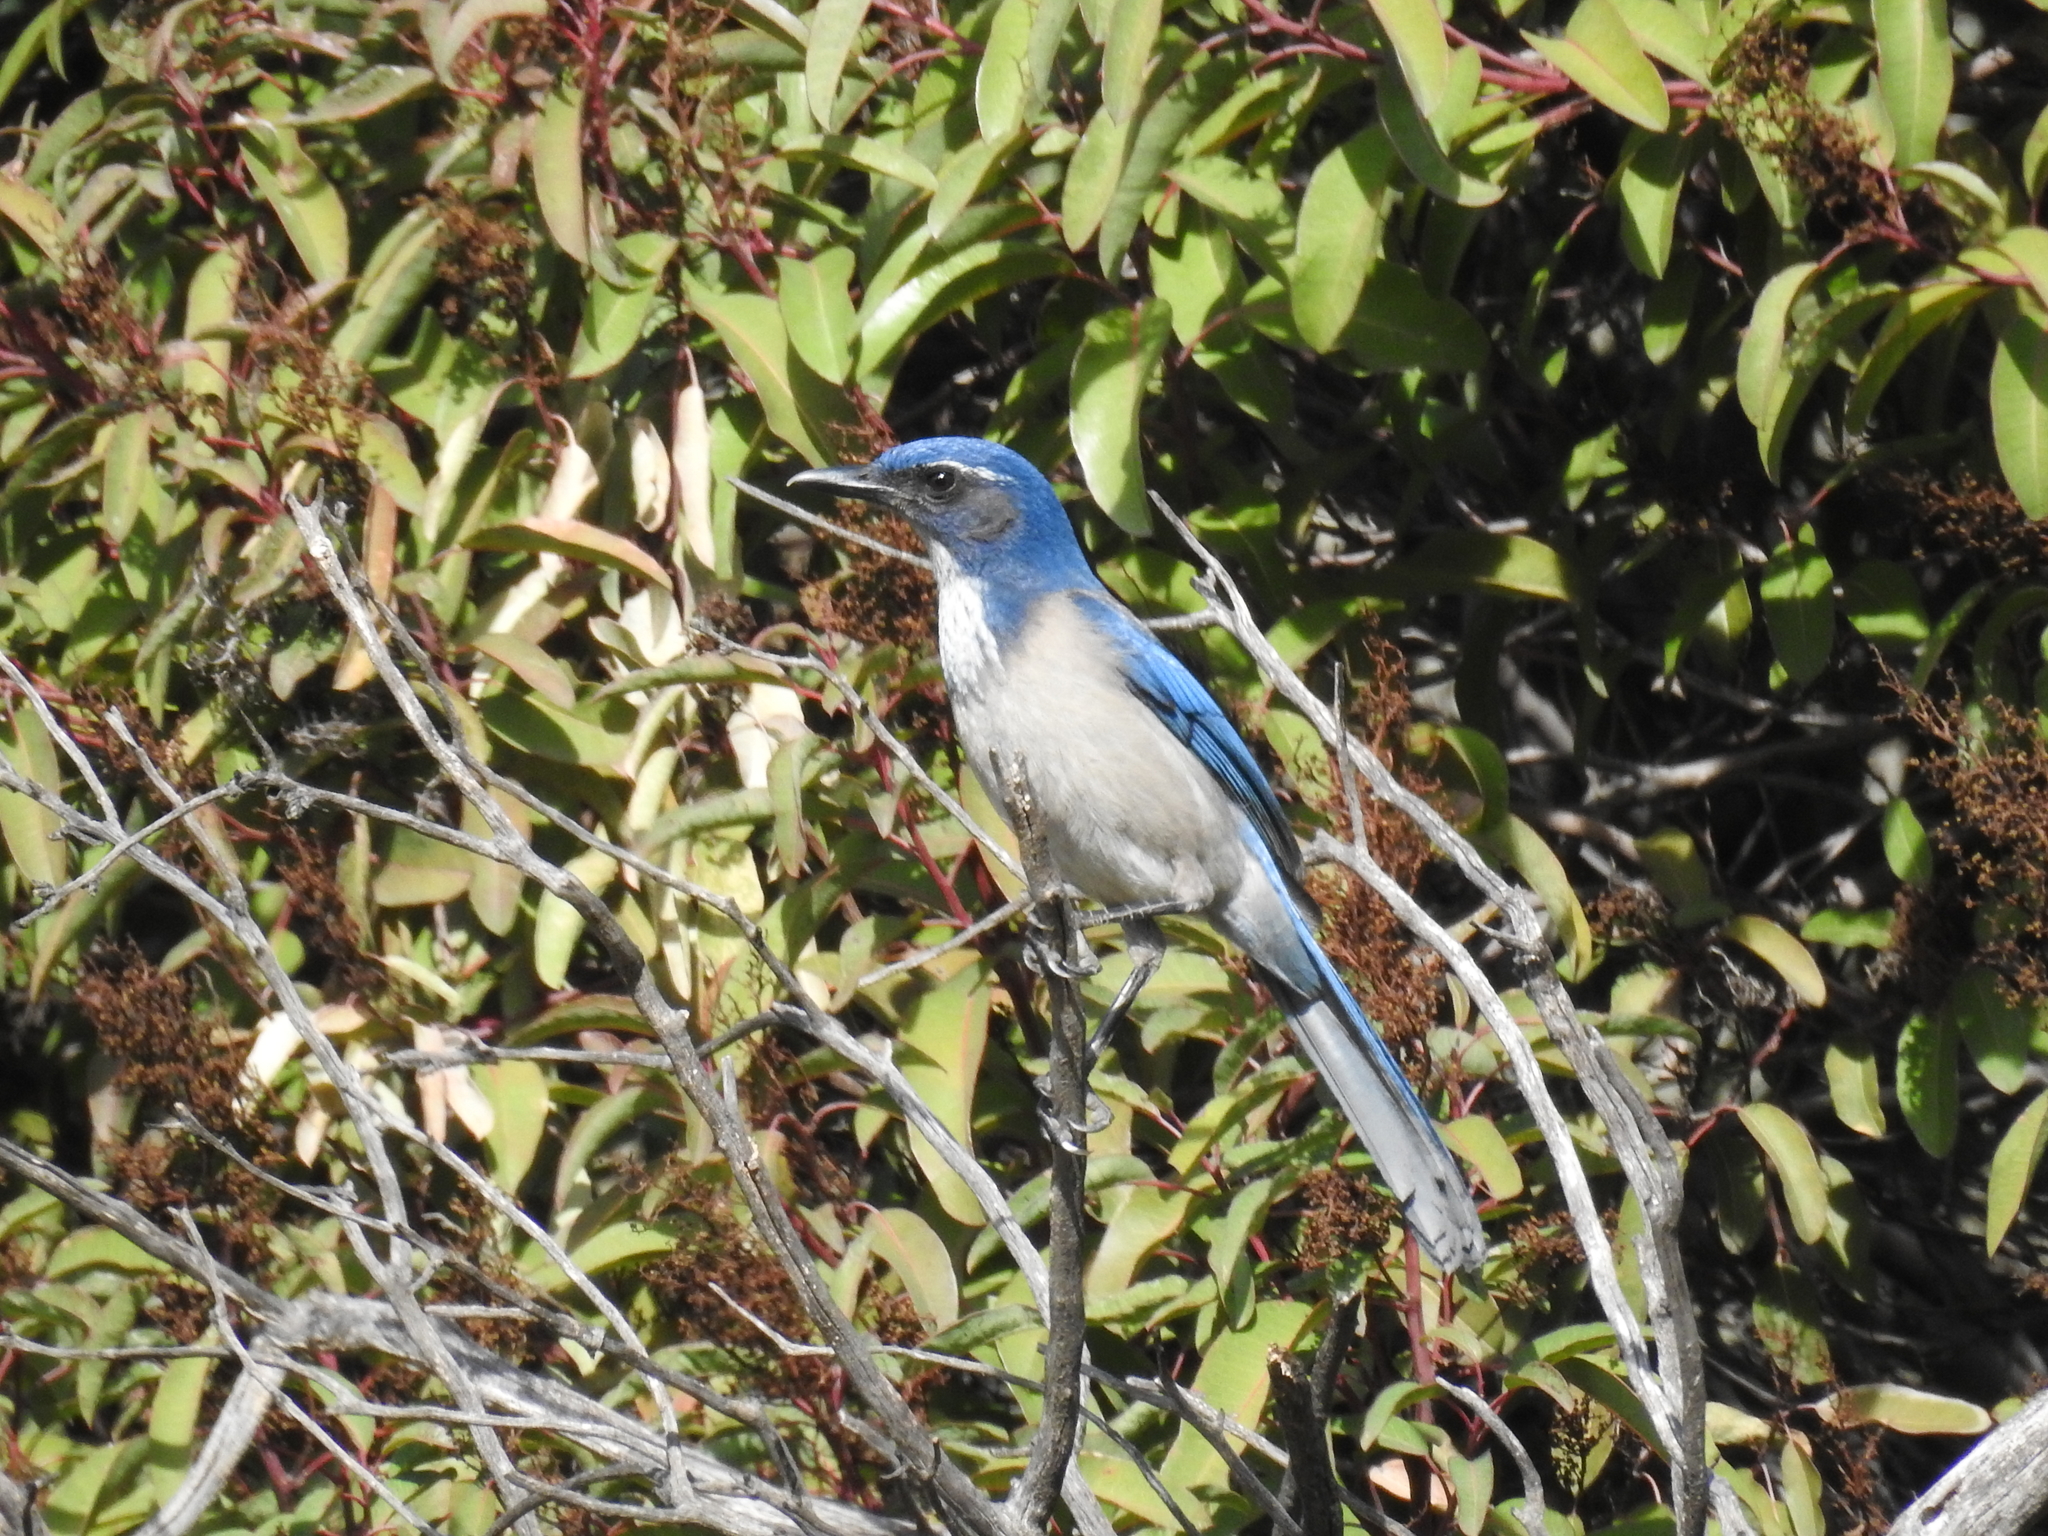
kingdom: Animalia
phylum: Chordata
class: Aves
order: Passeriformes
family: Corvidae
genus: Aphelocoma
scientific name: Aphelocoma californica
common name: California scrub-jay
